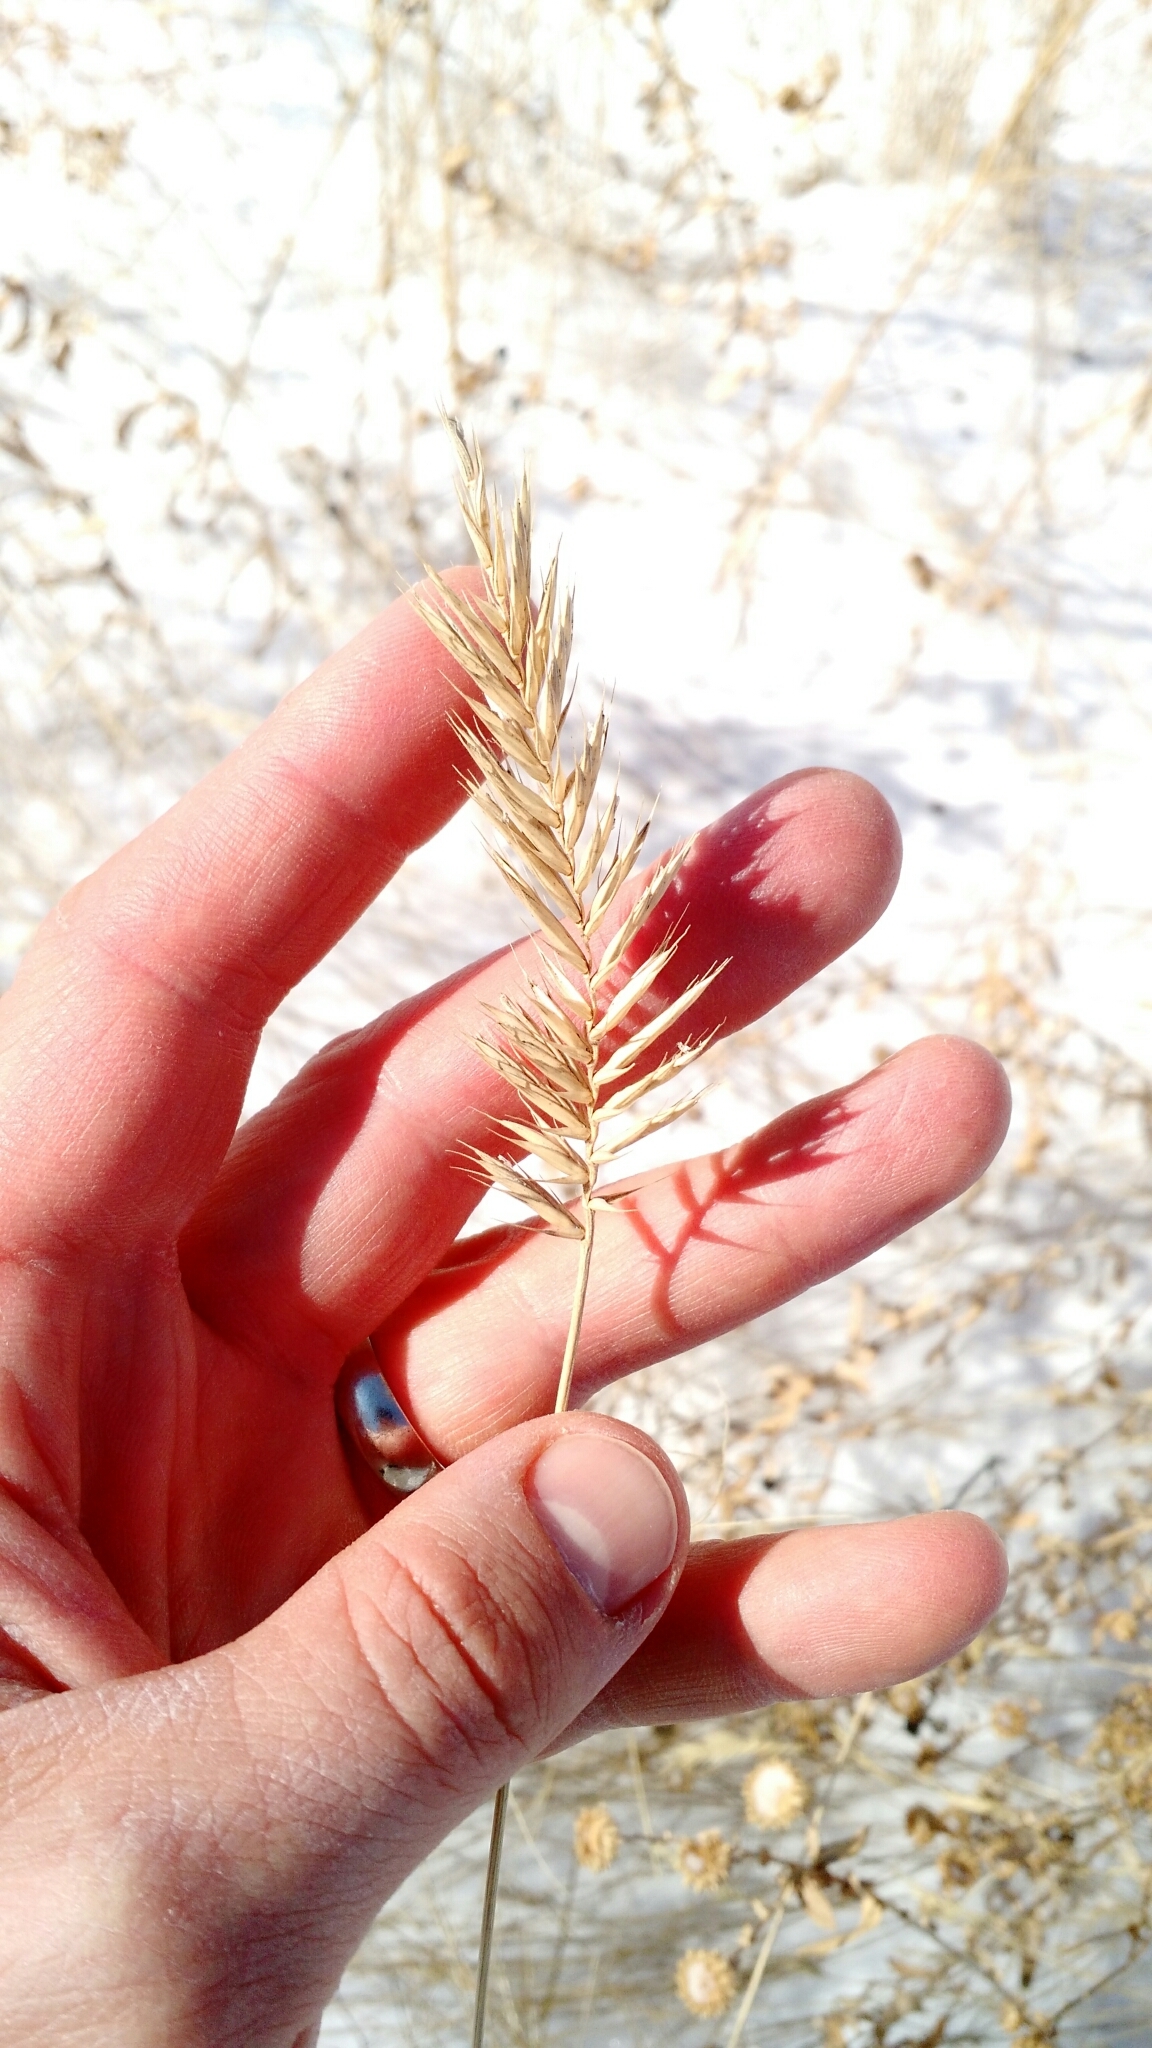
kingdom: Plantae
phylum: Tracheophyta
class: Liliopsida
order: Poales
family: Poaceae
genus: Agropyron
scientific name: Agropyron cristatum
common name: Crested wheatgrass
